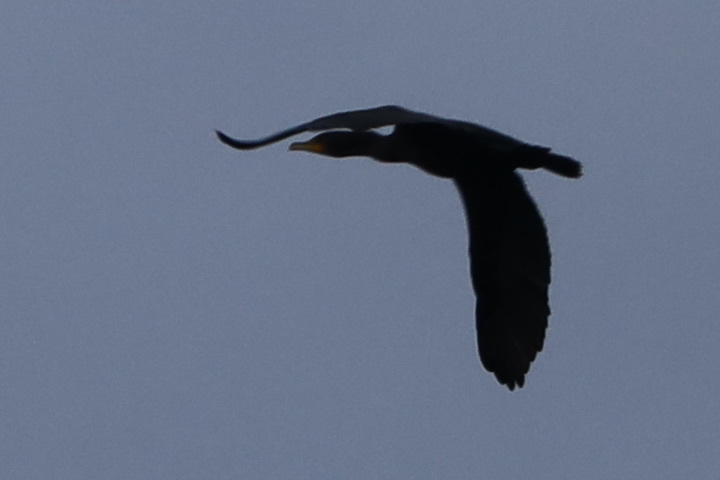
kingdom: Animalia
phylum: Chordata
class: Aves
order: Suliformes
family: Phalacrocoracidae
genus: Phalacrocorax
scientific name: Phalacrocorax auritus
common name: Double-crested cormorant
